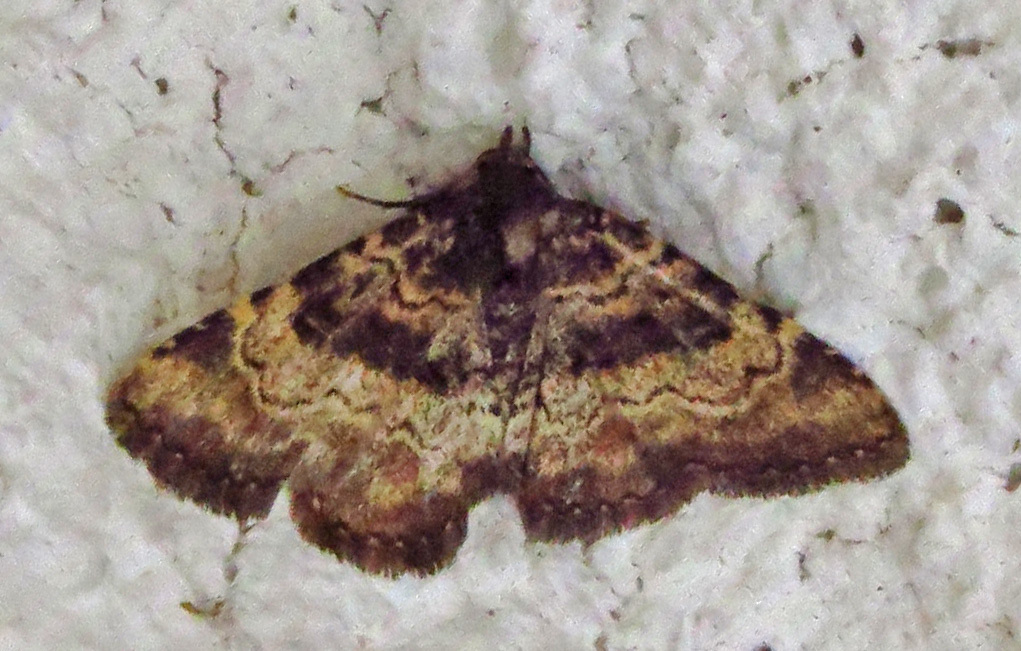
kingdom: Animalia
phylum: Arthropoda
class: Insecta
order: Lepidoptera
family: Erebidae
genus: Metalectra
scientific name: Metalectra edilis
